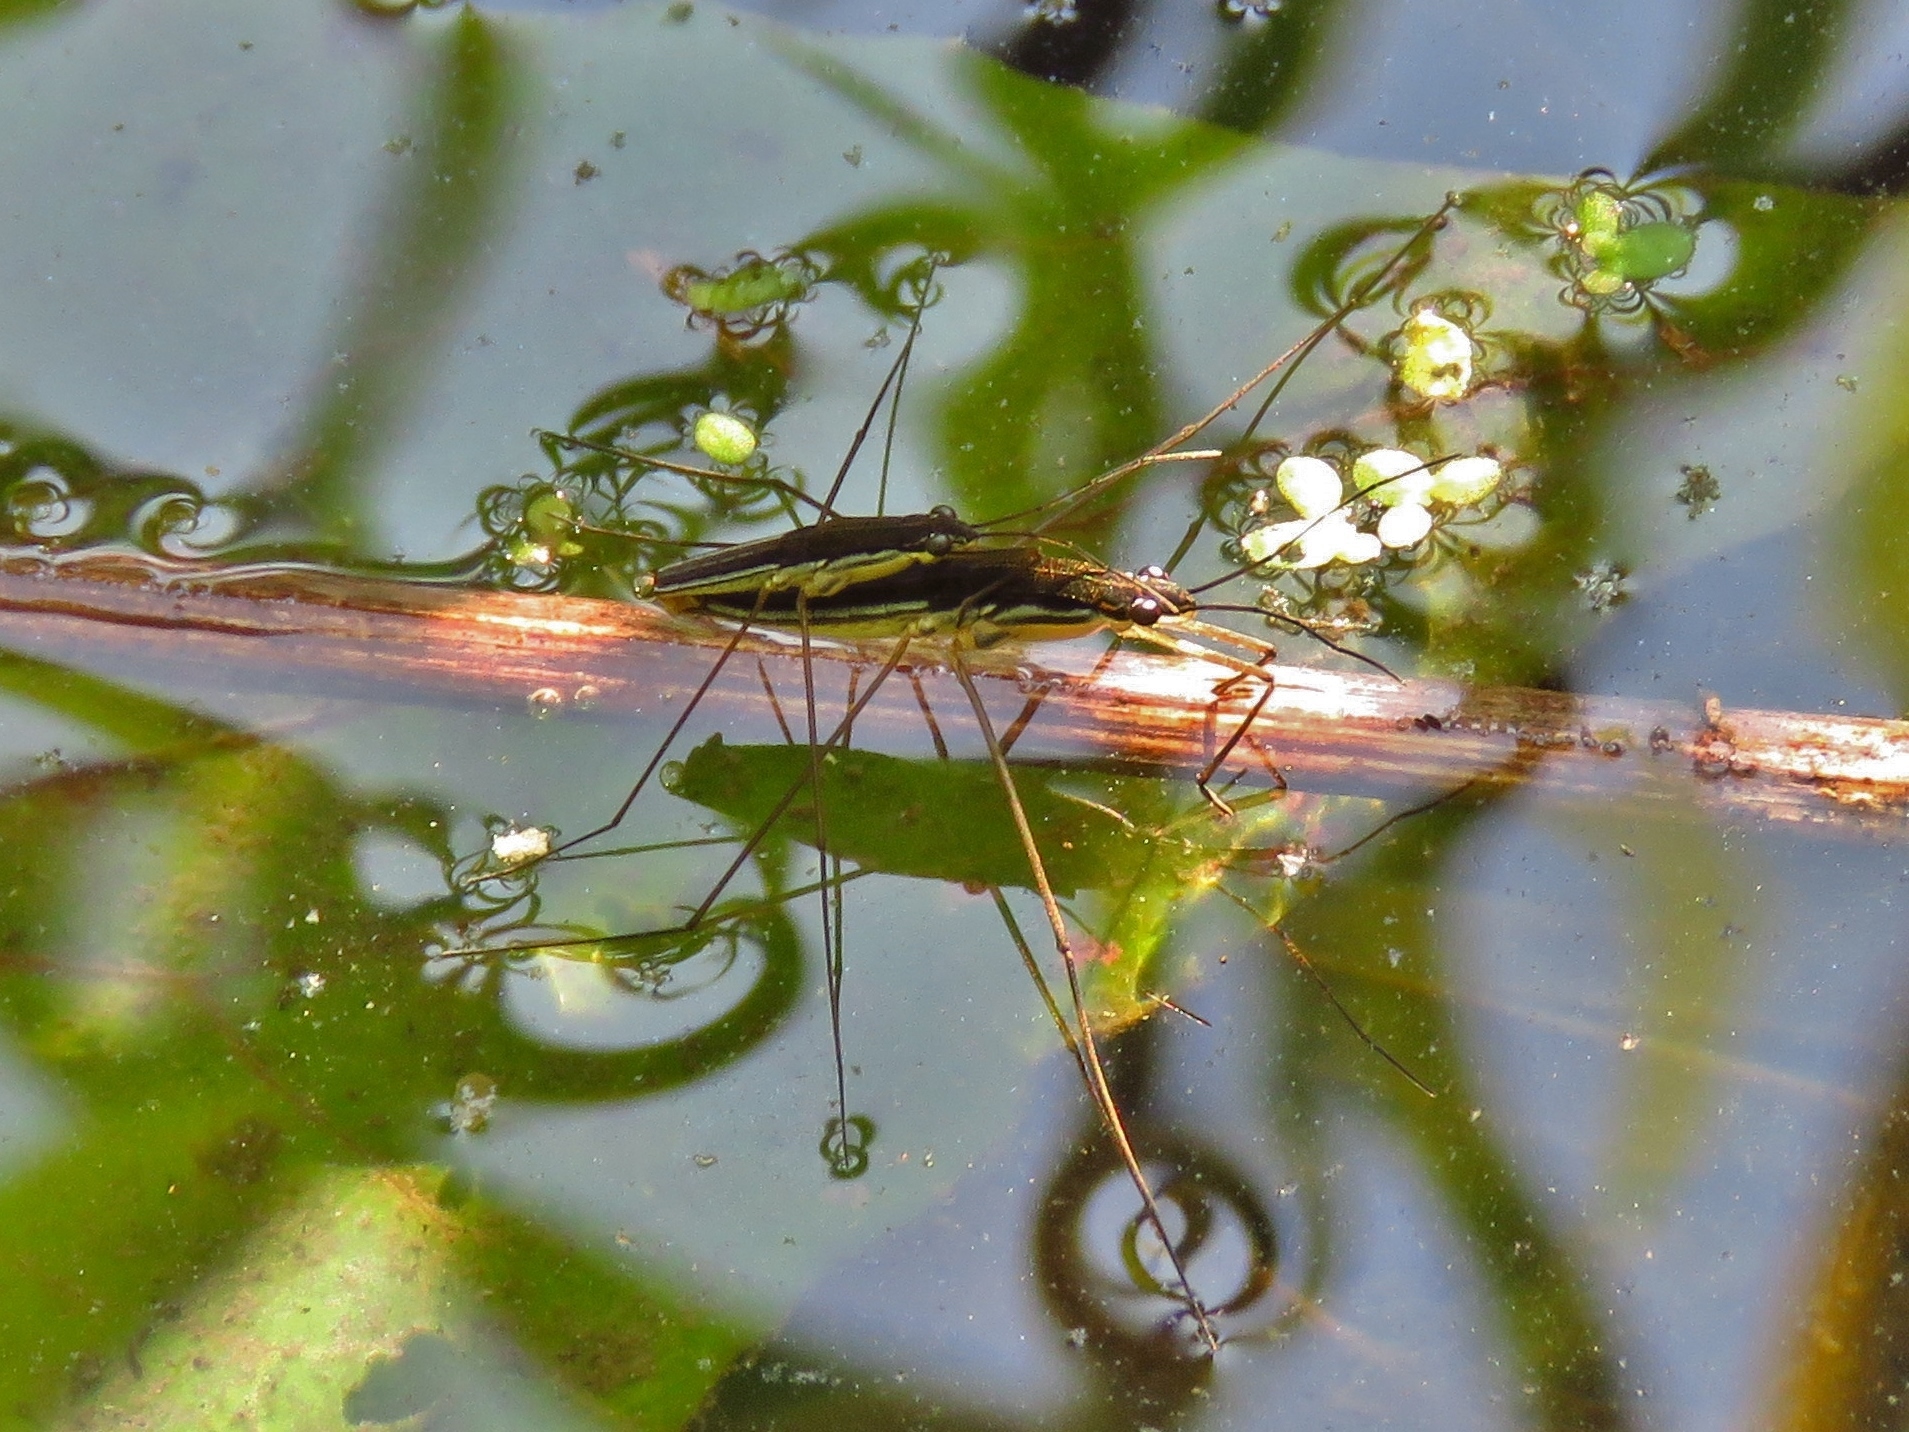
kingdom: Animalia
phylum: Arthropoda
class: Insecta
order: Hemiptera
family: Gerridae
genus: Limnoporus
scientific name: Limnoporus canaliculatus
